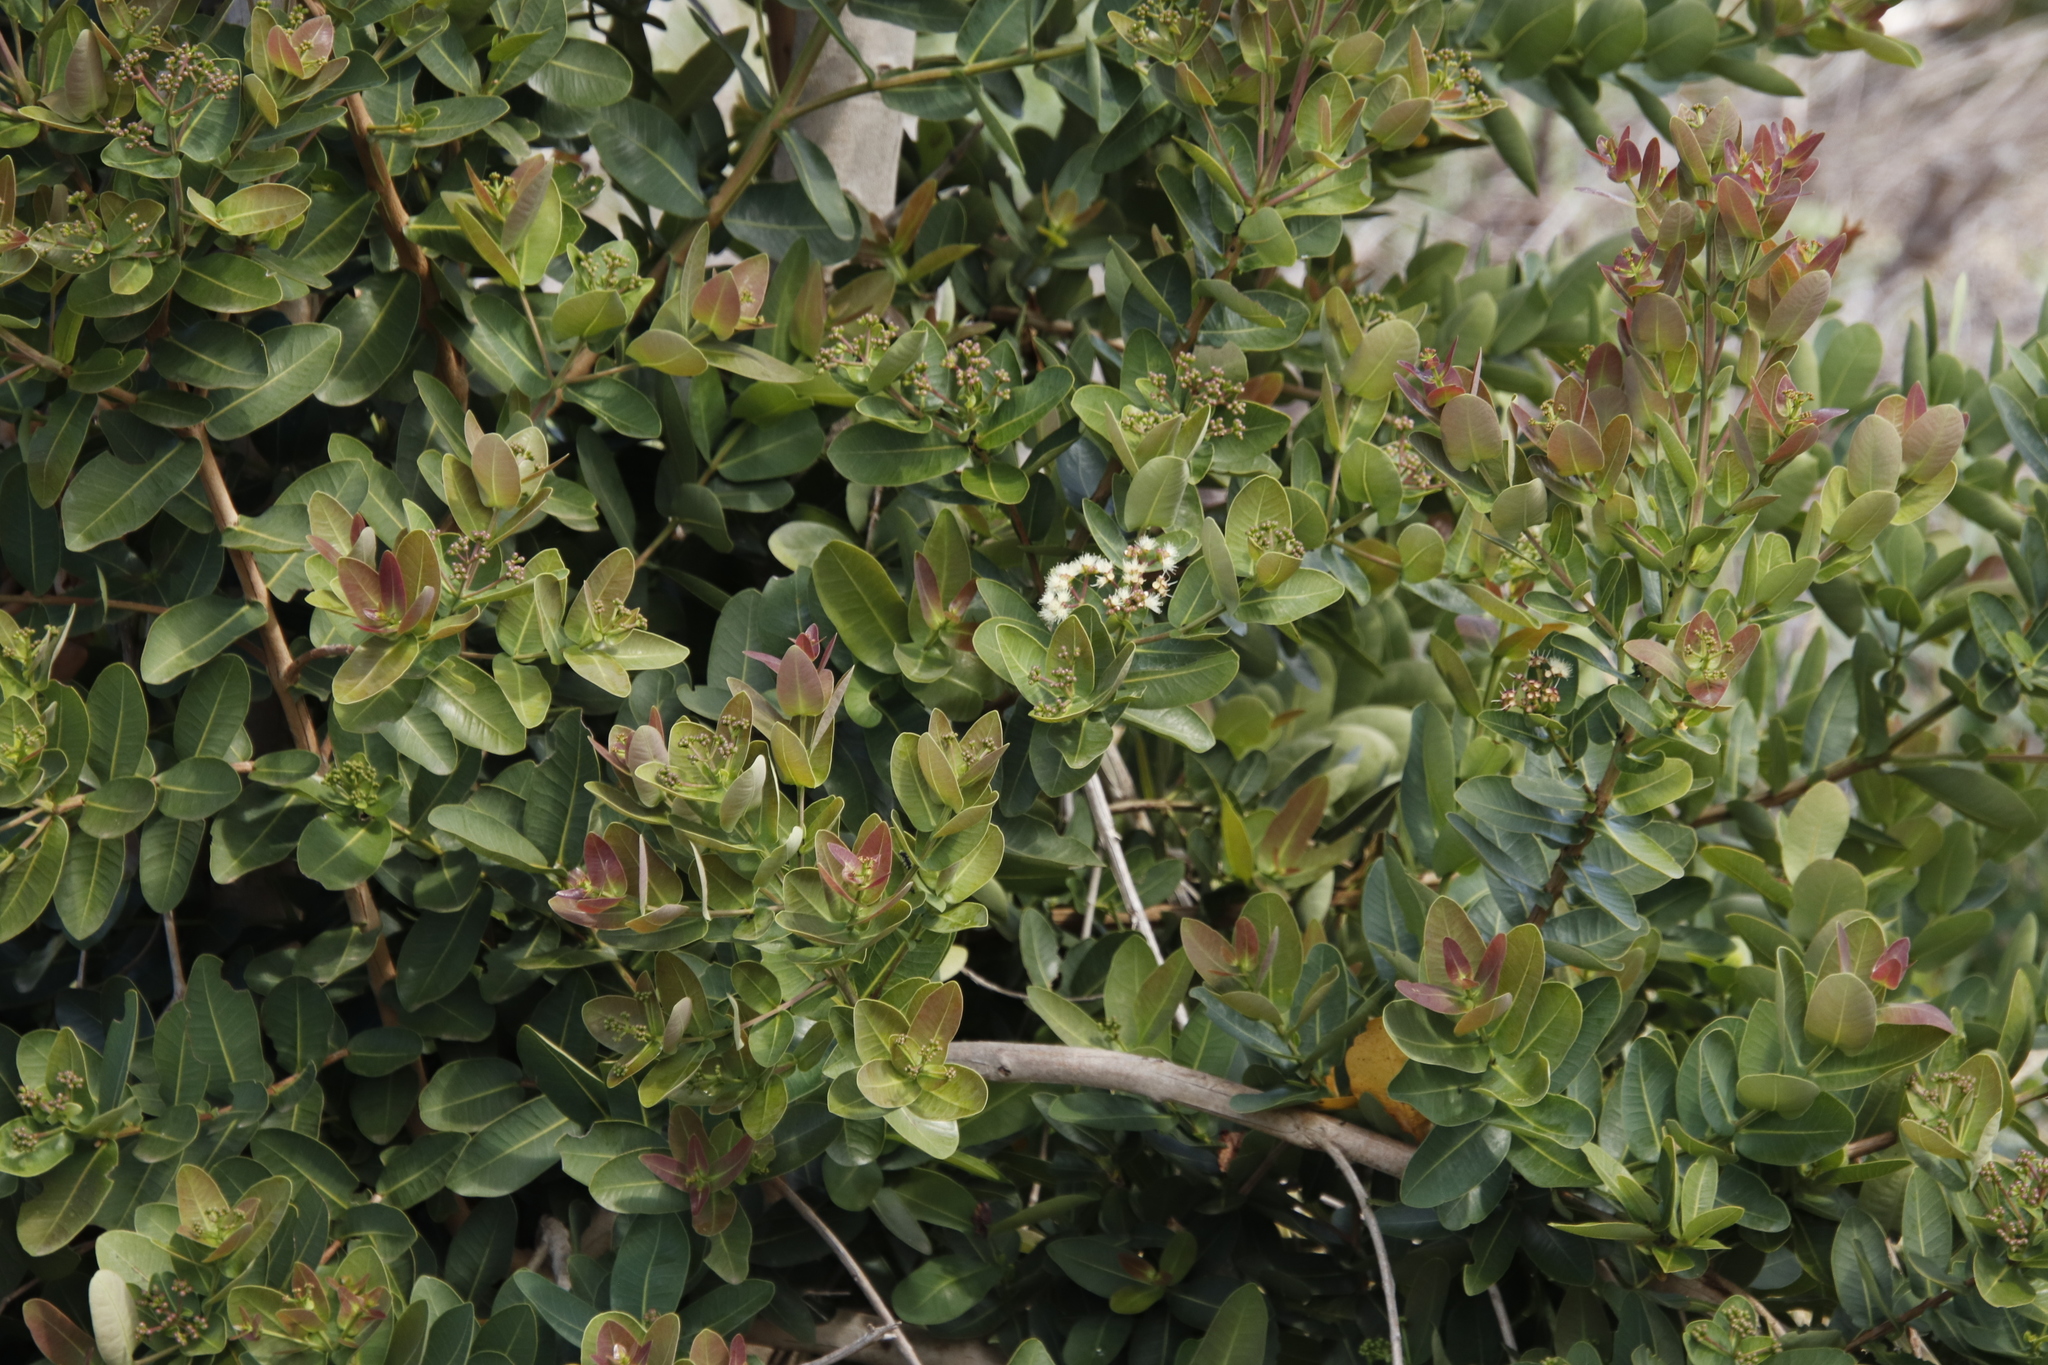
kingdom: Plantae
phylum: Tracheophyta
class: Magnoliopsida
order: Myrtales
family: Myrtaceae
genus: Syzygium
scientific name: Syzygium cordatum
